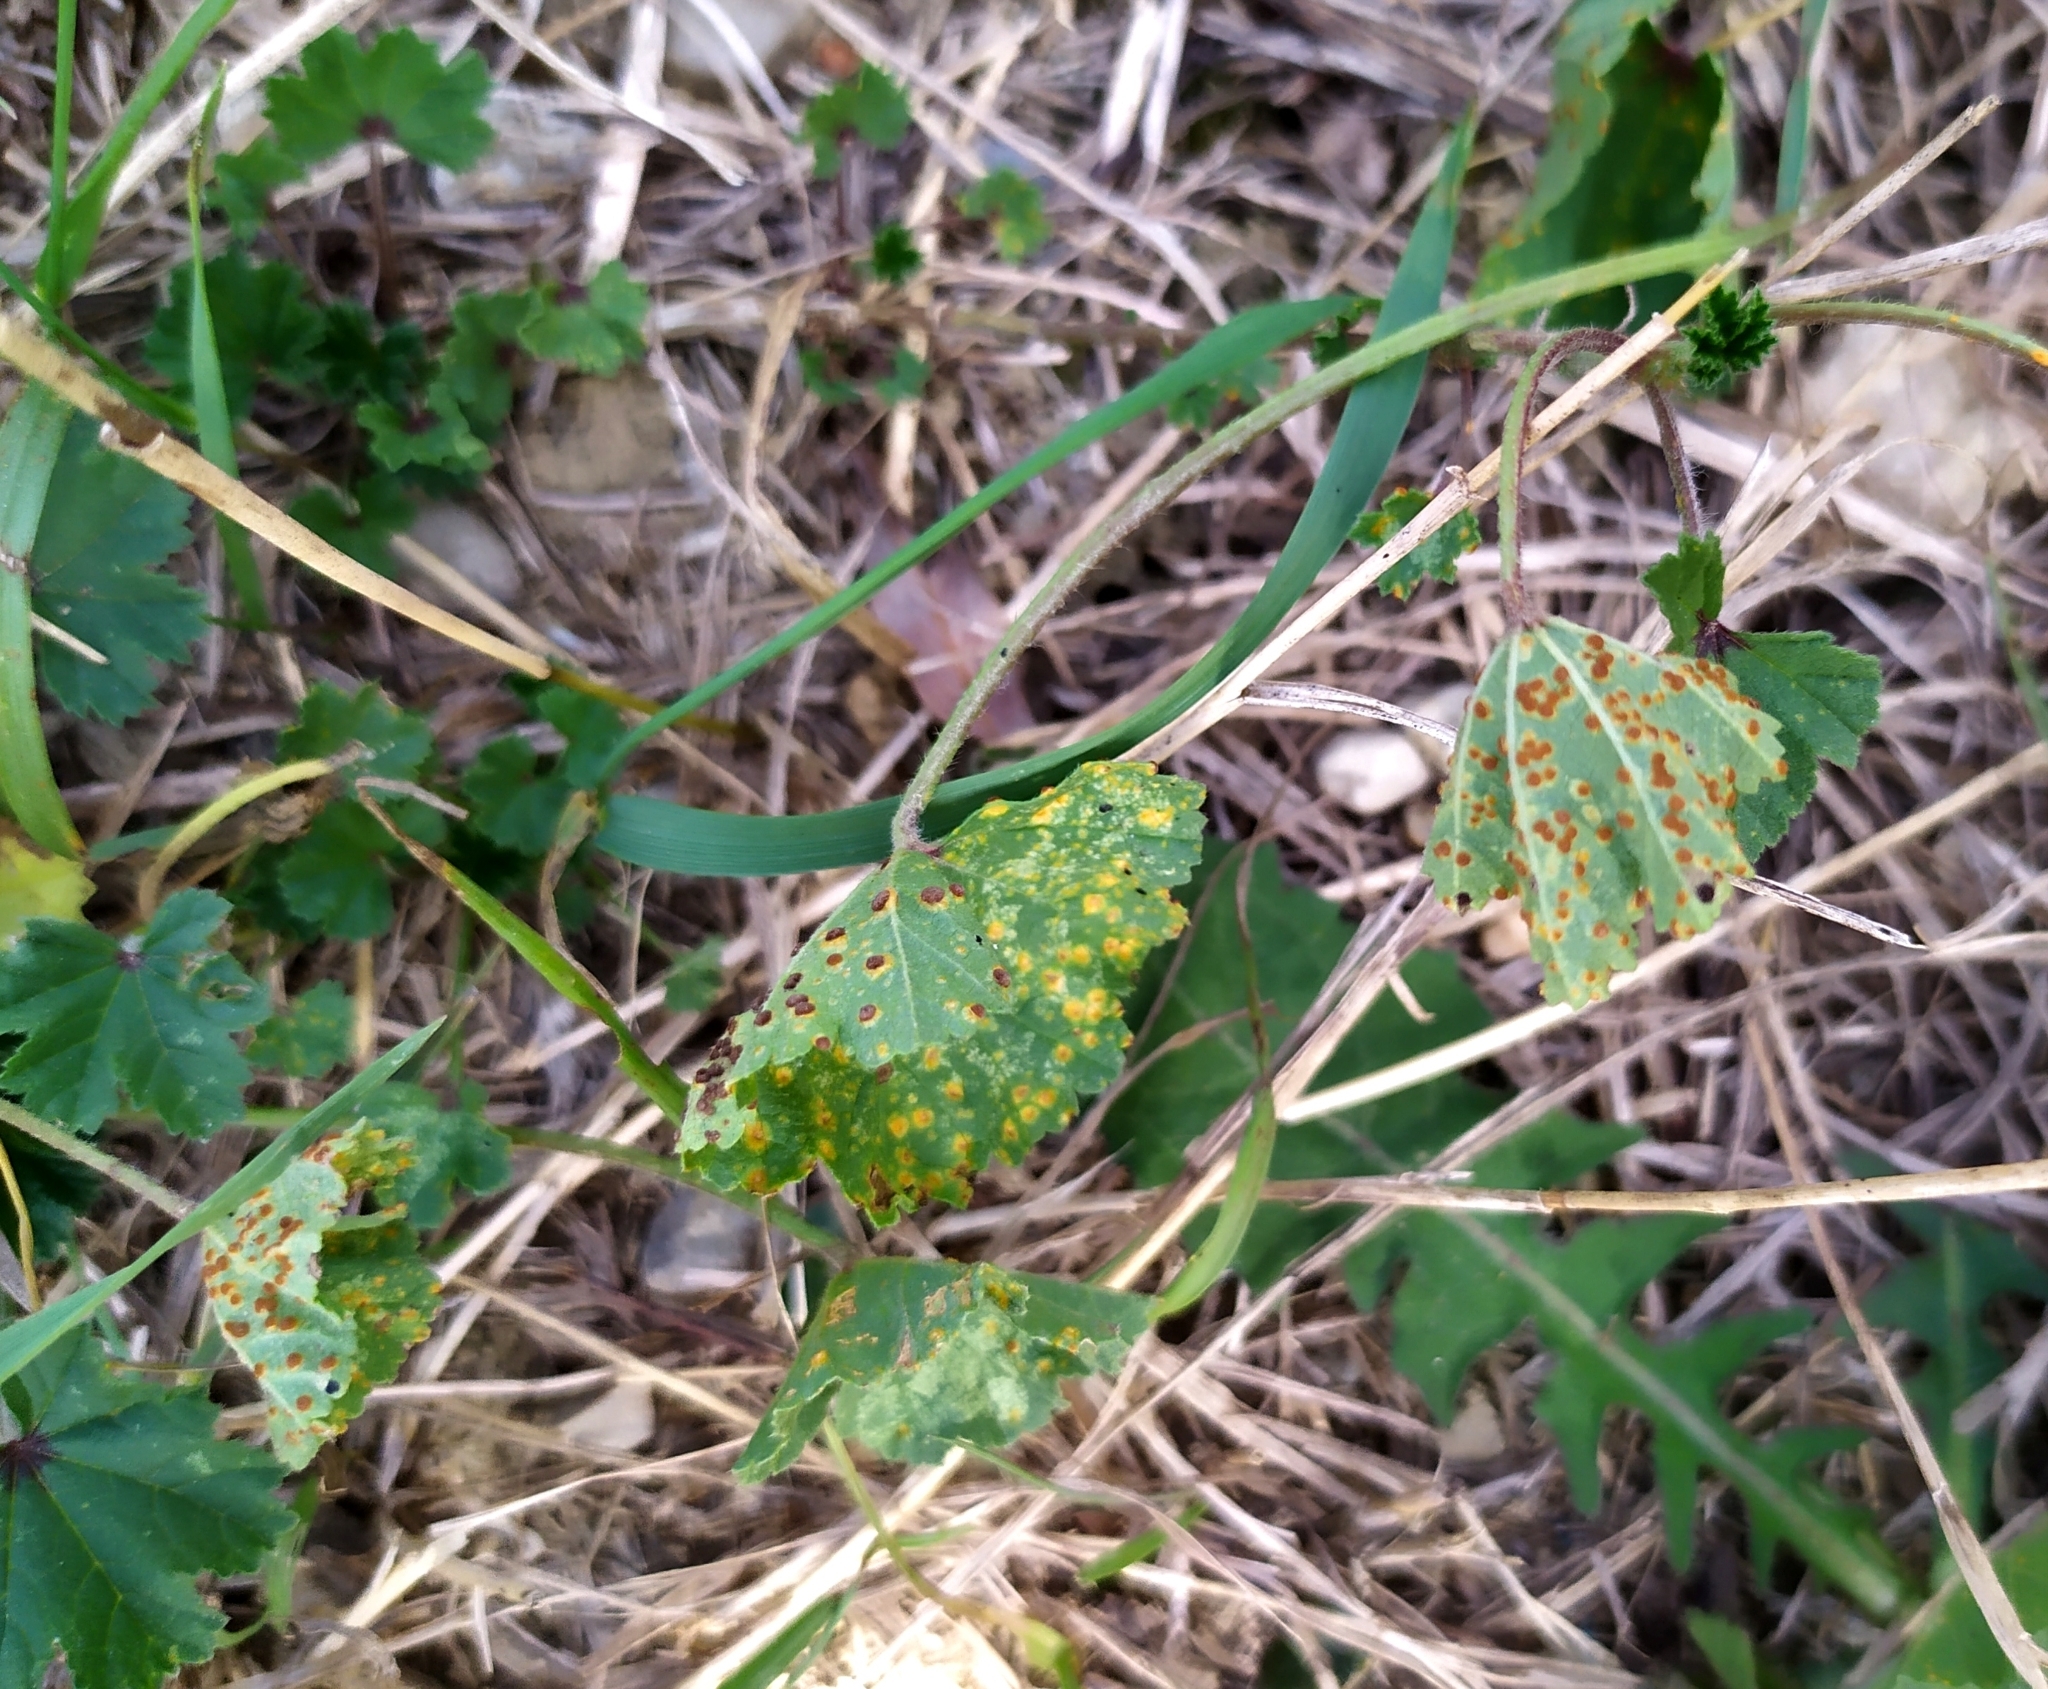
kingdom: Fungi
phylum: Basidiomycota
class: Pucciniomycetes
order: Pucciniales
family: Pucciniaceae
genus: Puccinia
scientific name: Puccinia malvacearum
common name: Hollyhock rust
